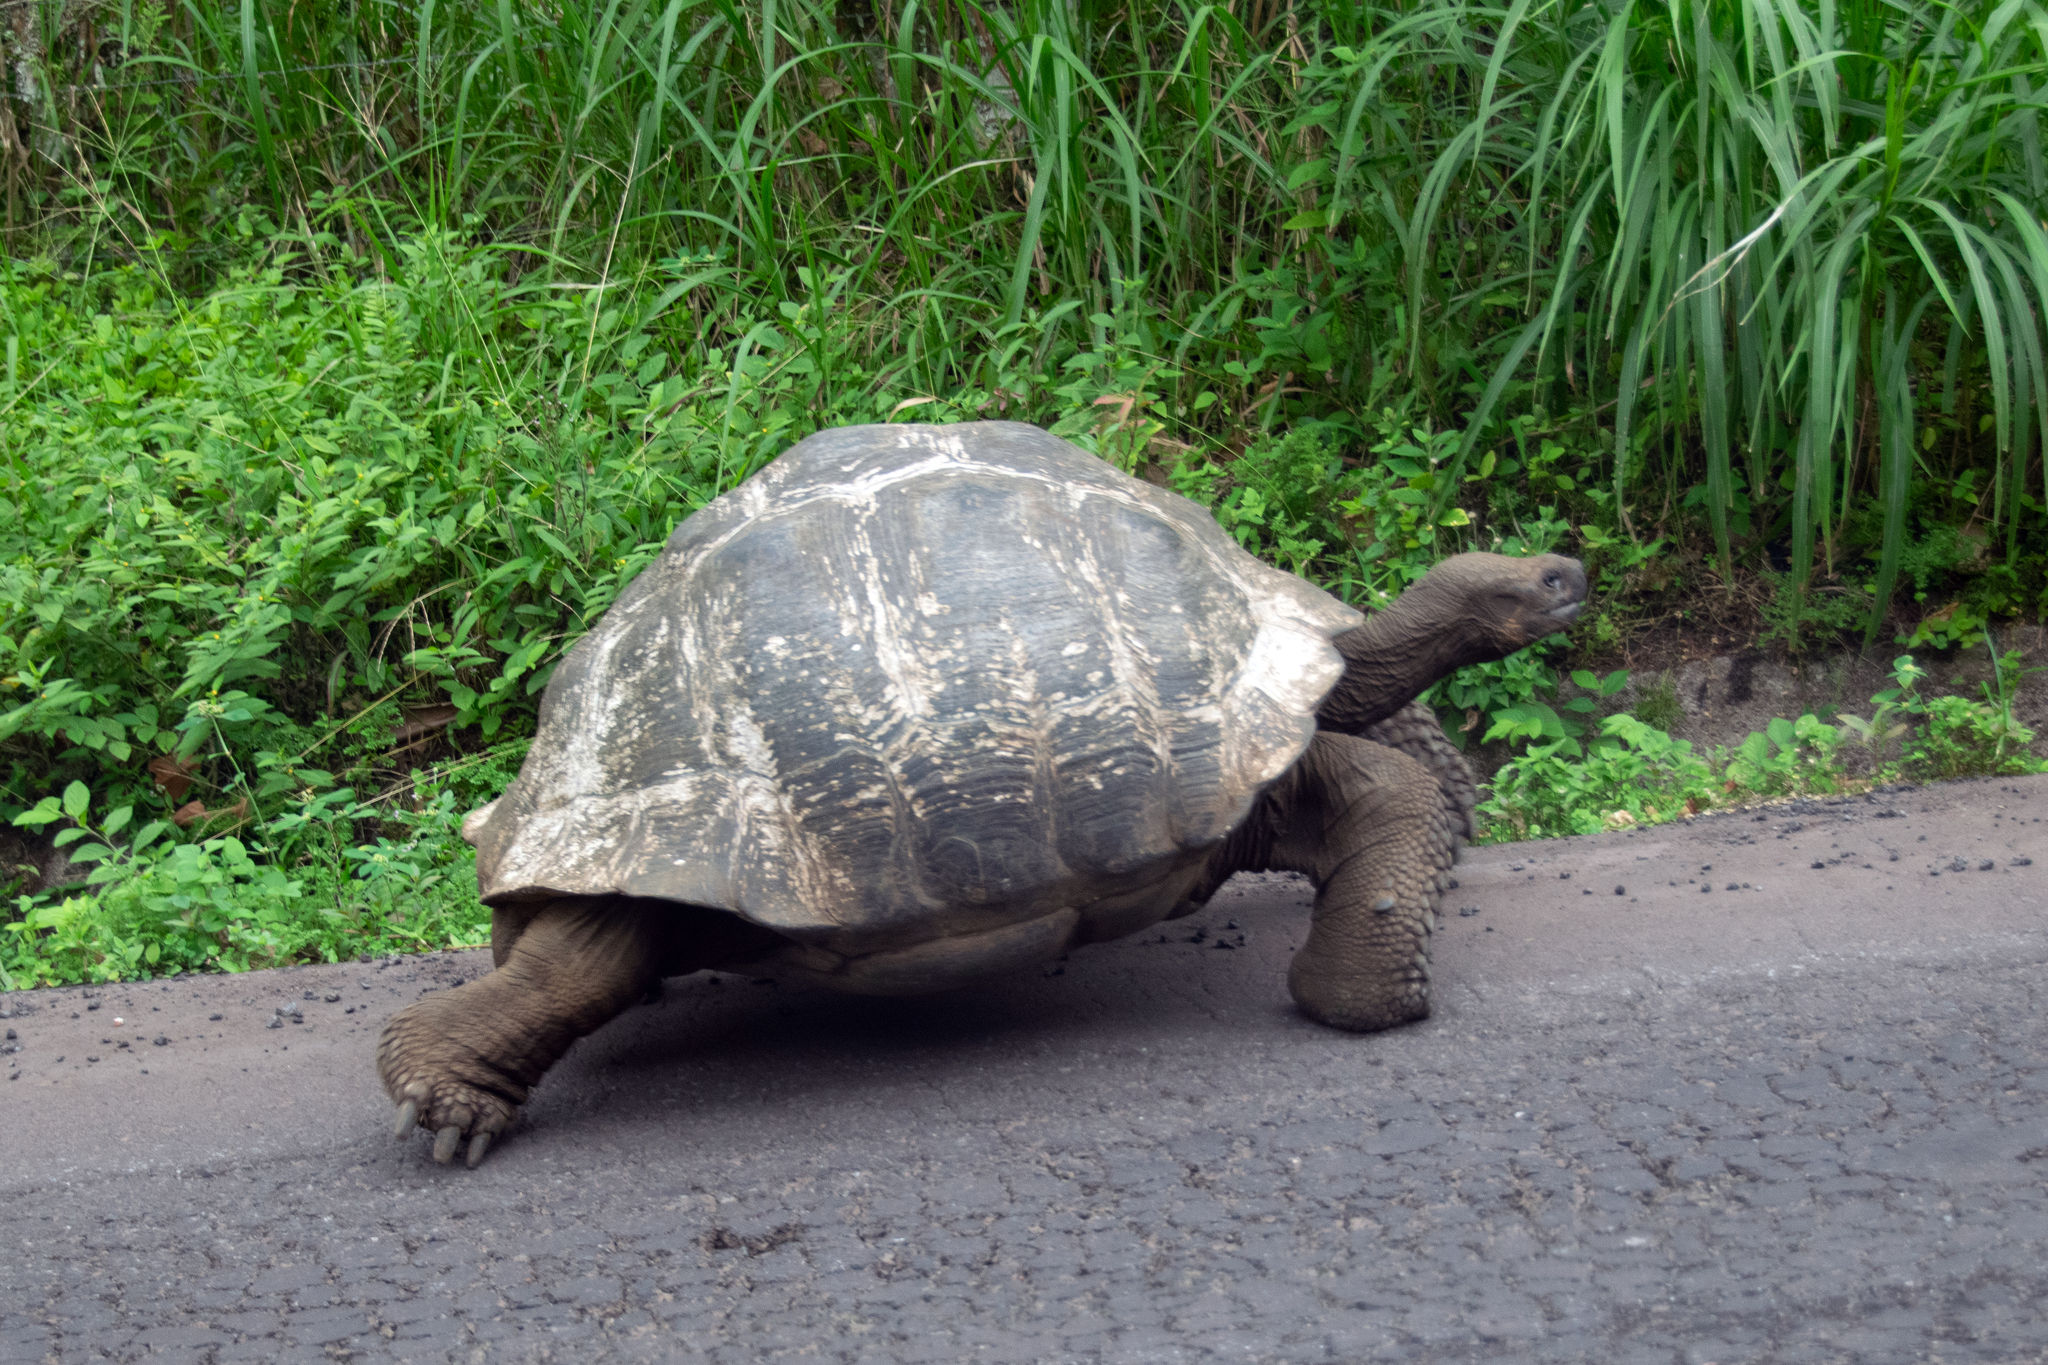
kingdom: Animalia
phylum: Chordata
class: Testudines
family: Testudinidae
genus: Chelonoidis
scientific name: Chelonoidis porteri
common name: Indefatigable island giant tortoise
